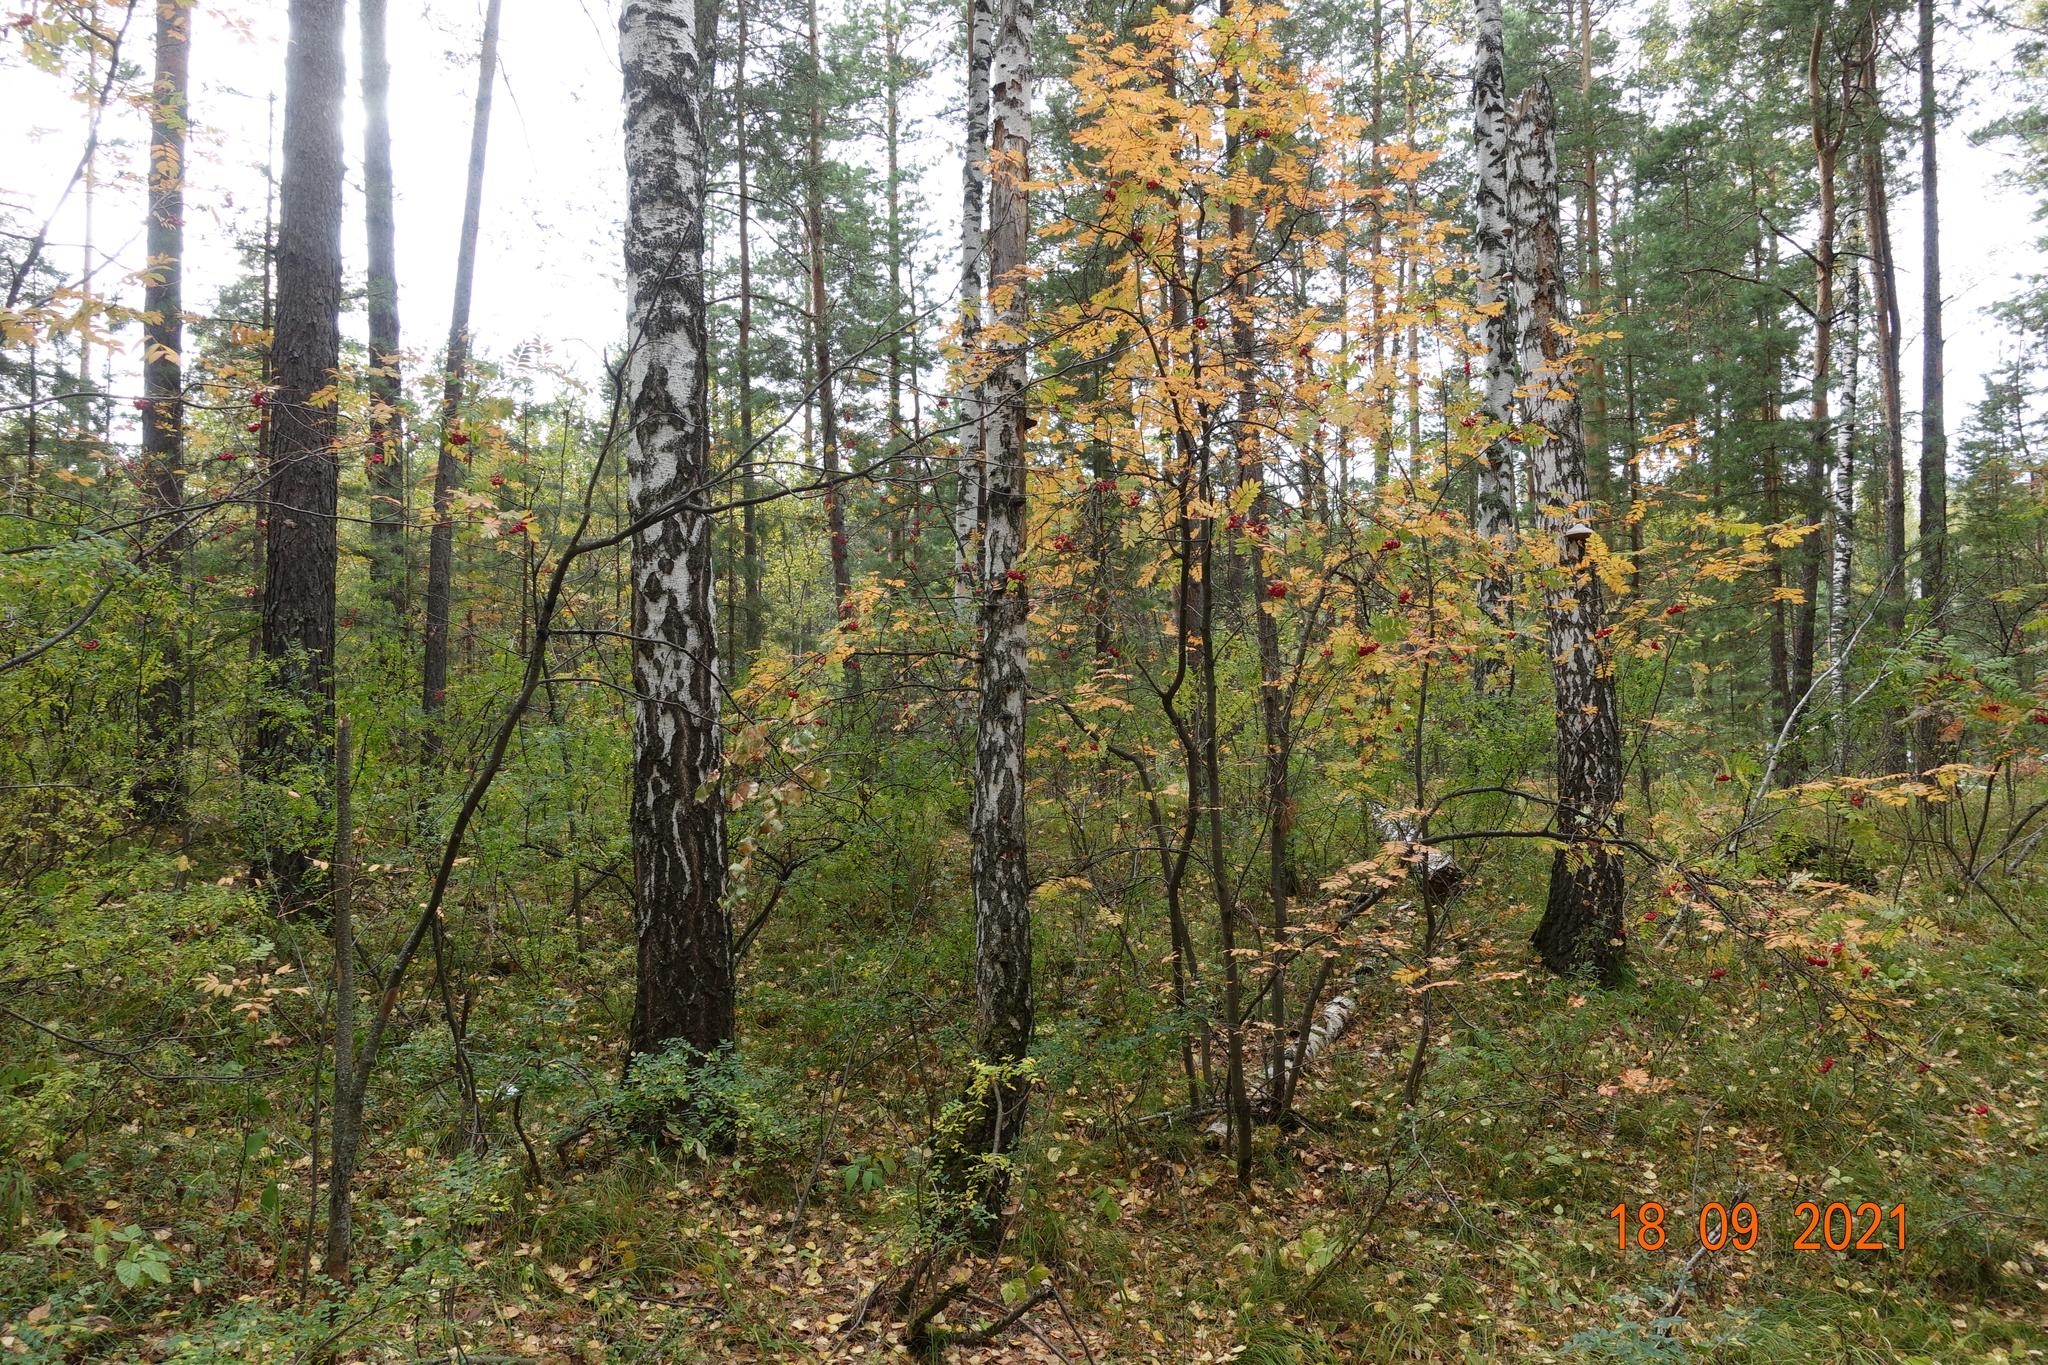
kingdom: Plantae
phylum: Tracheophyta
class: Magnoliopsida
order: Fagales
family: Betulaceae
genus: Betula
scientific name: Betula pendula
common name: Silver birch
